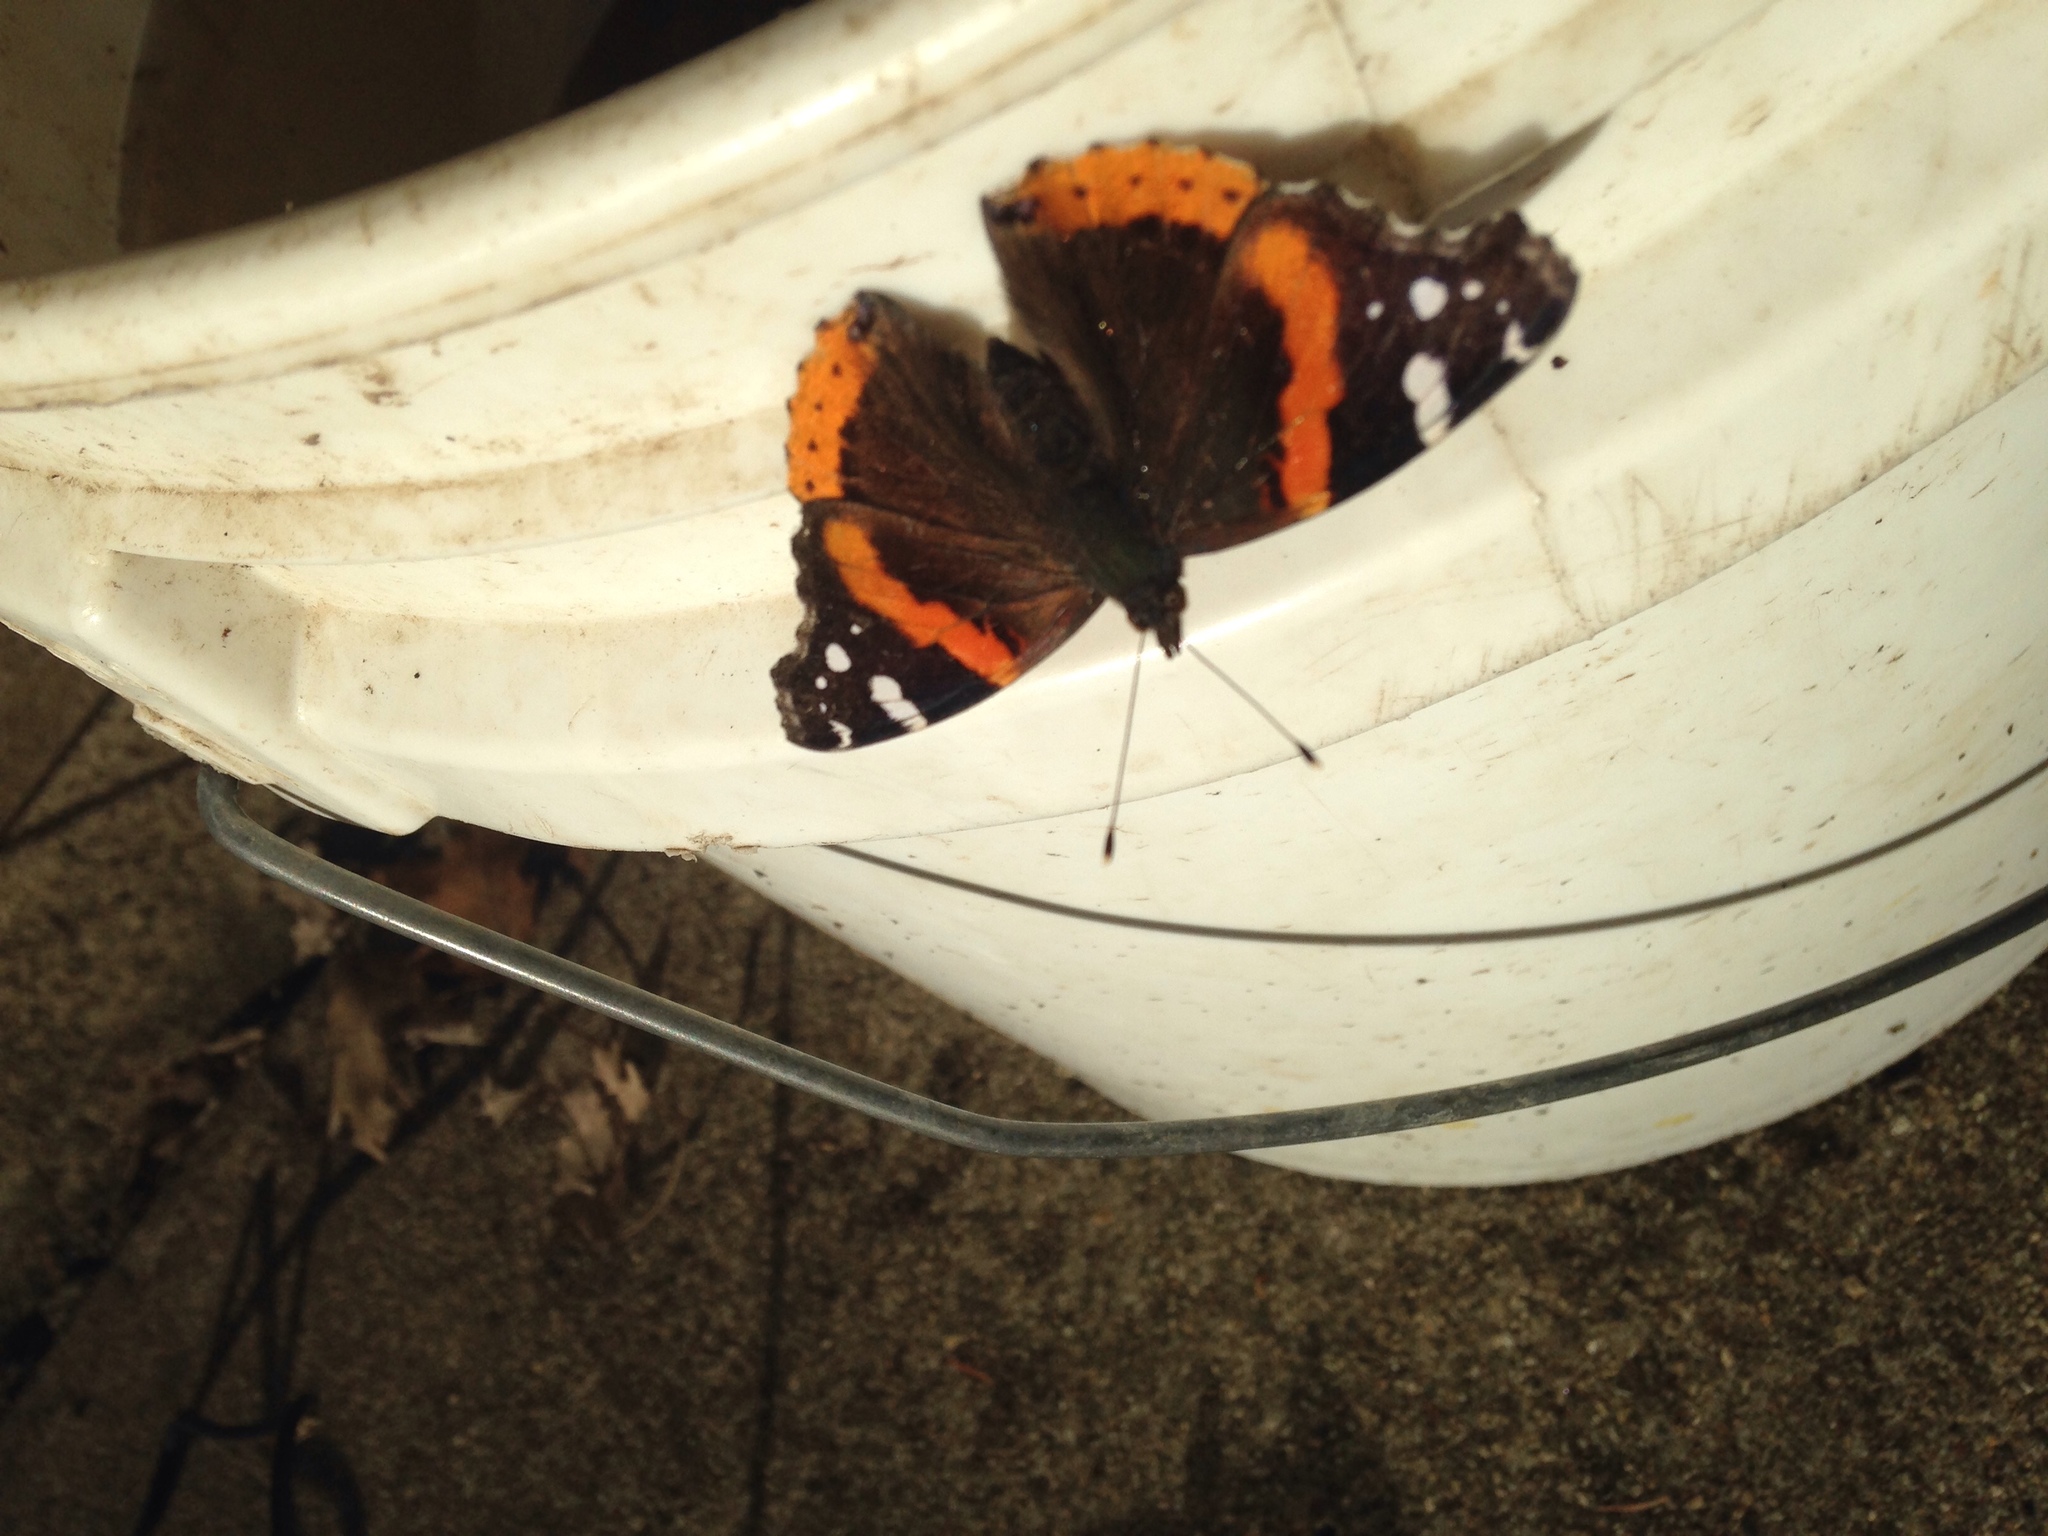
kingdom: Animalia
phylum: Arthropoda
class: Insecta
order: Lepidoptera
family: Nymphalidae
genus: Vanessa
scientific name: Vanessa atalanta
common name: Red admiral
